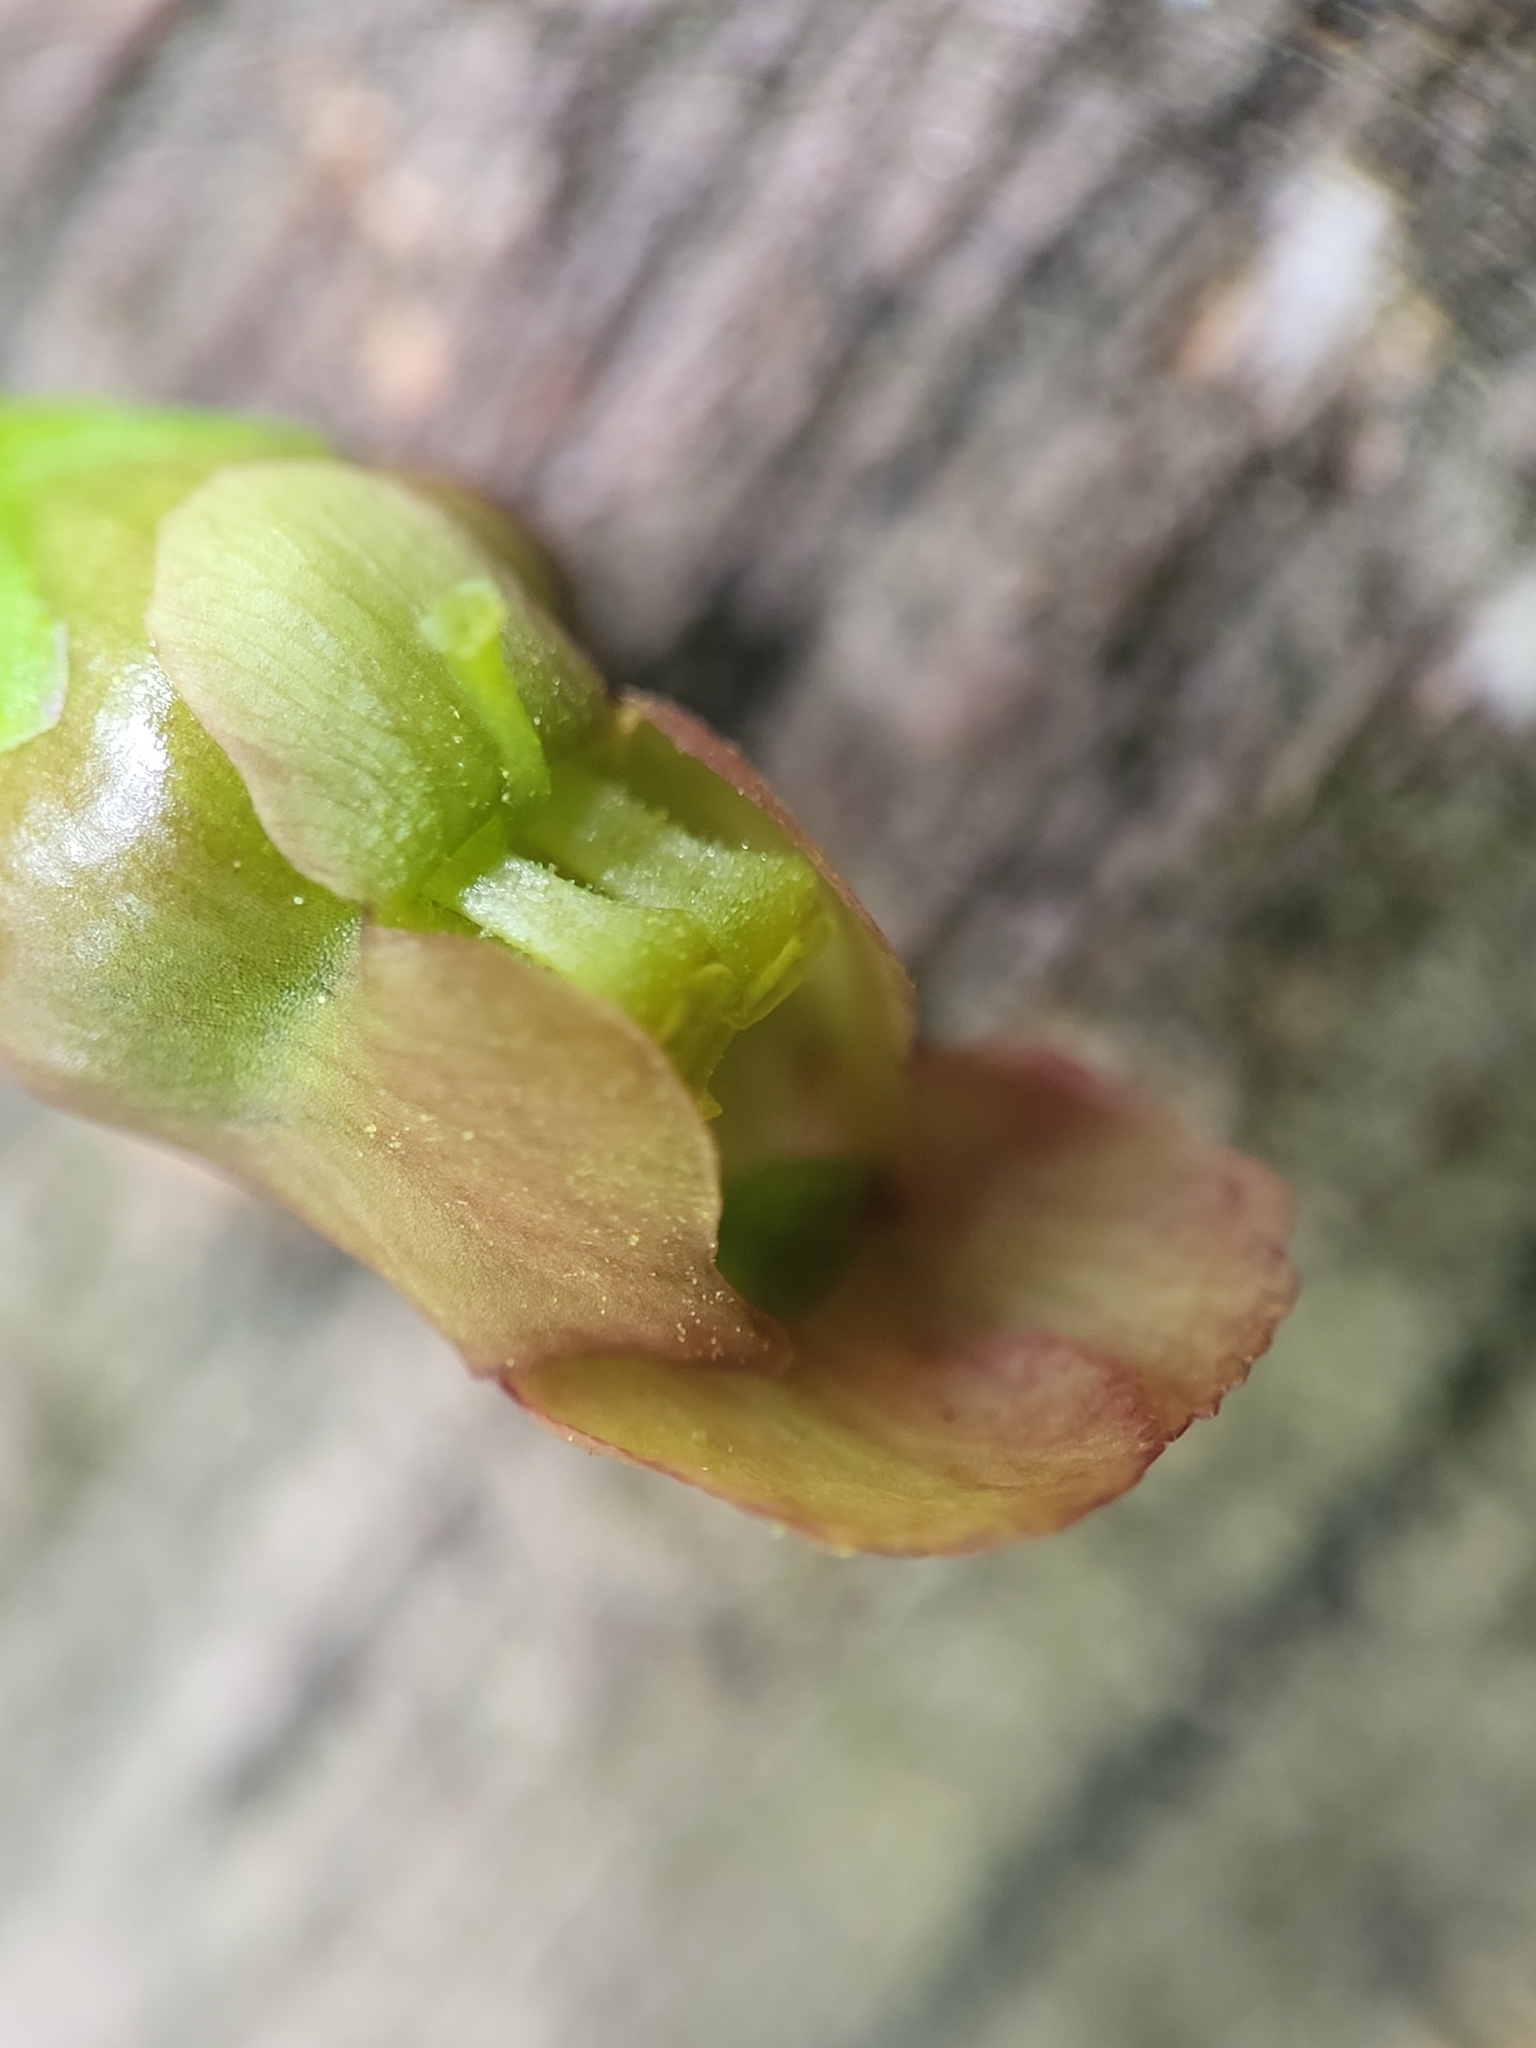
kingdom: Plantae
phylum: Tracheophyta
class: Magnoliopsida
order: Lamiales
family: Scrophulariaceae
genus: Scrophularia
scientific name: Scrophularia lanceolata
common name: American figwort
